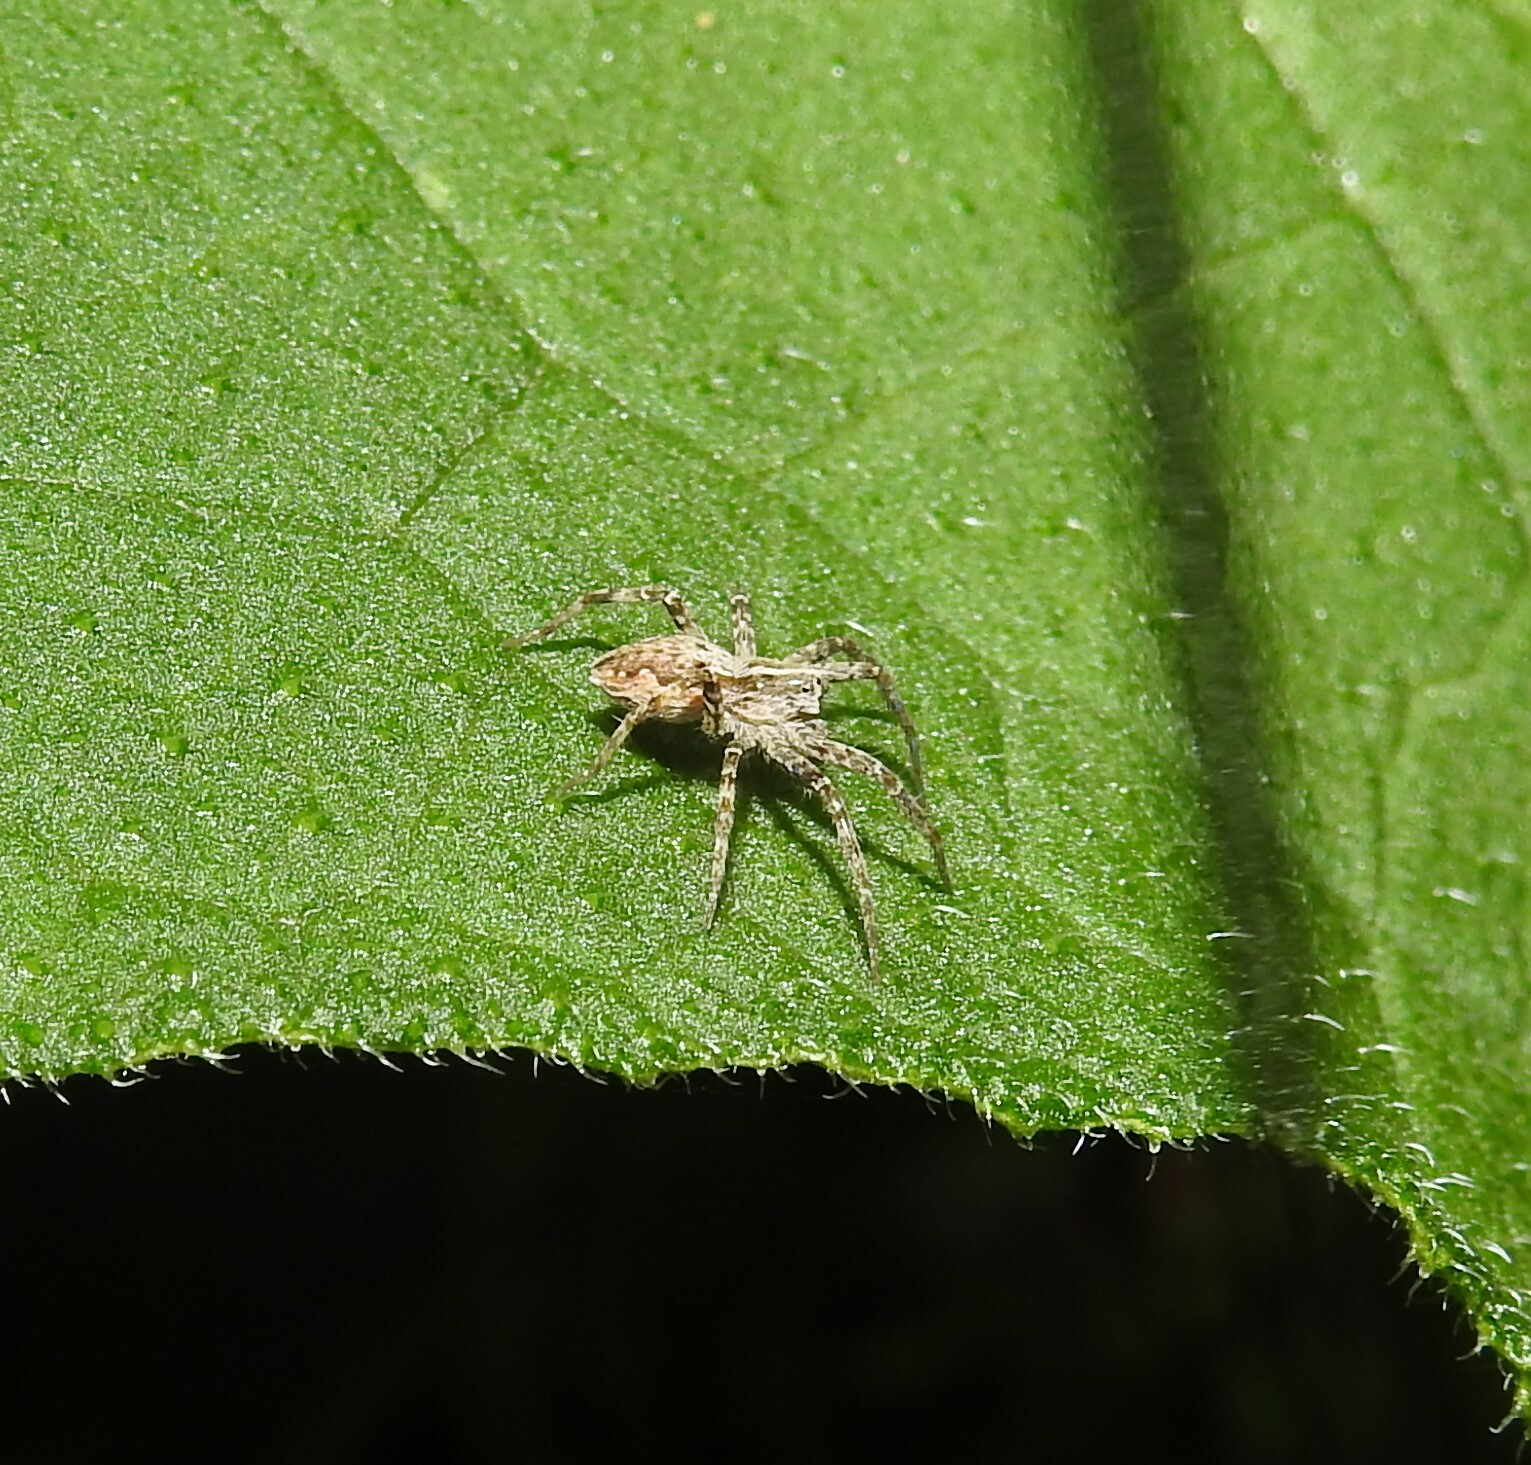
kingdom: Animalia
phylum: Arthropoda
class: Arachnida
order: Araneae
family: Pisauridae
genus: Pisaura
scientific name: Pisaura mirabilis
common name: Tent spider
